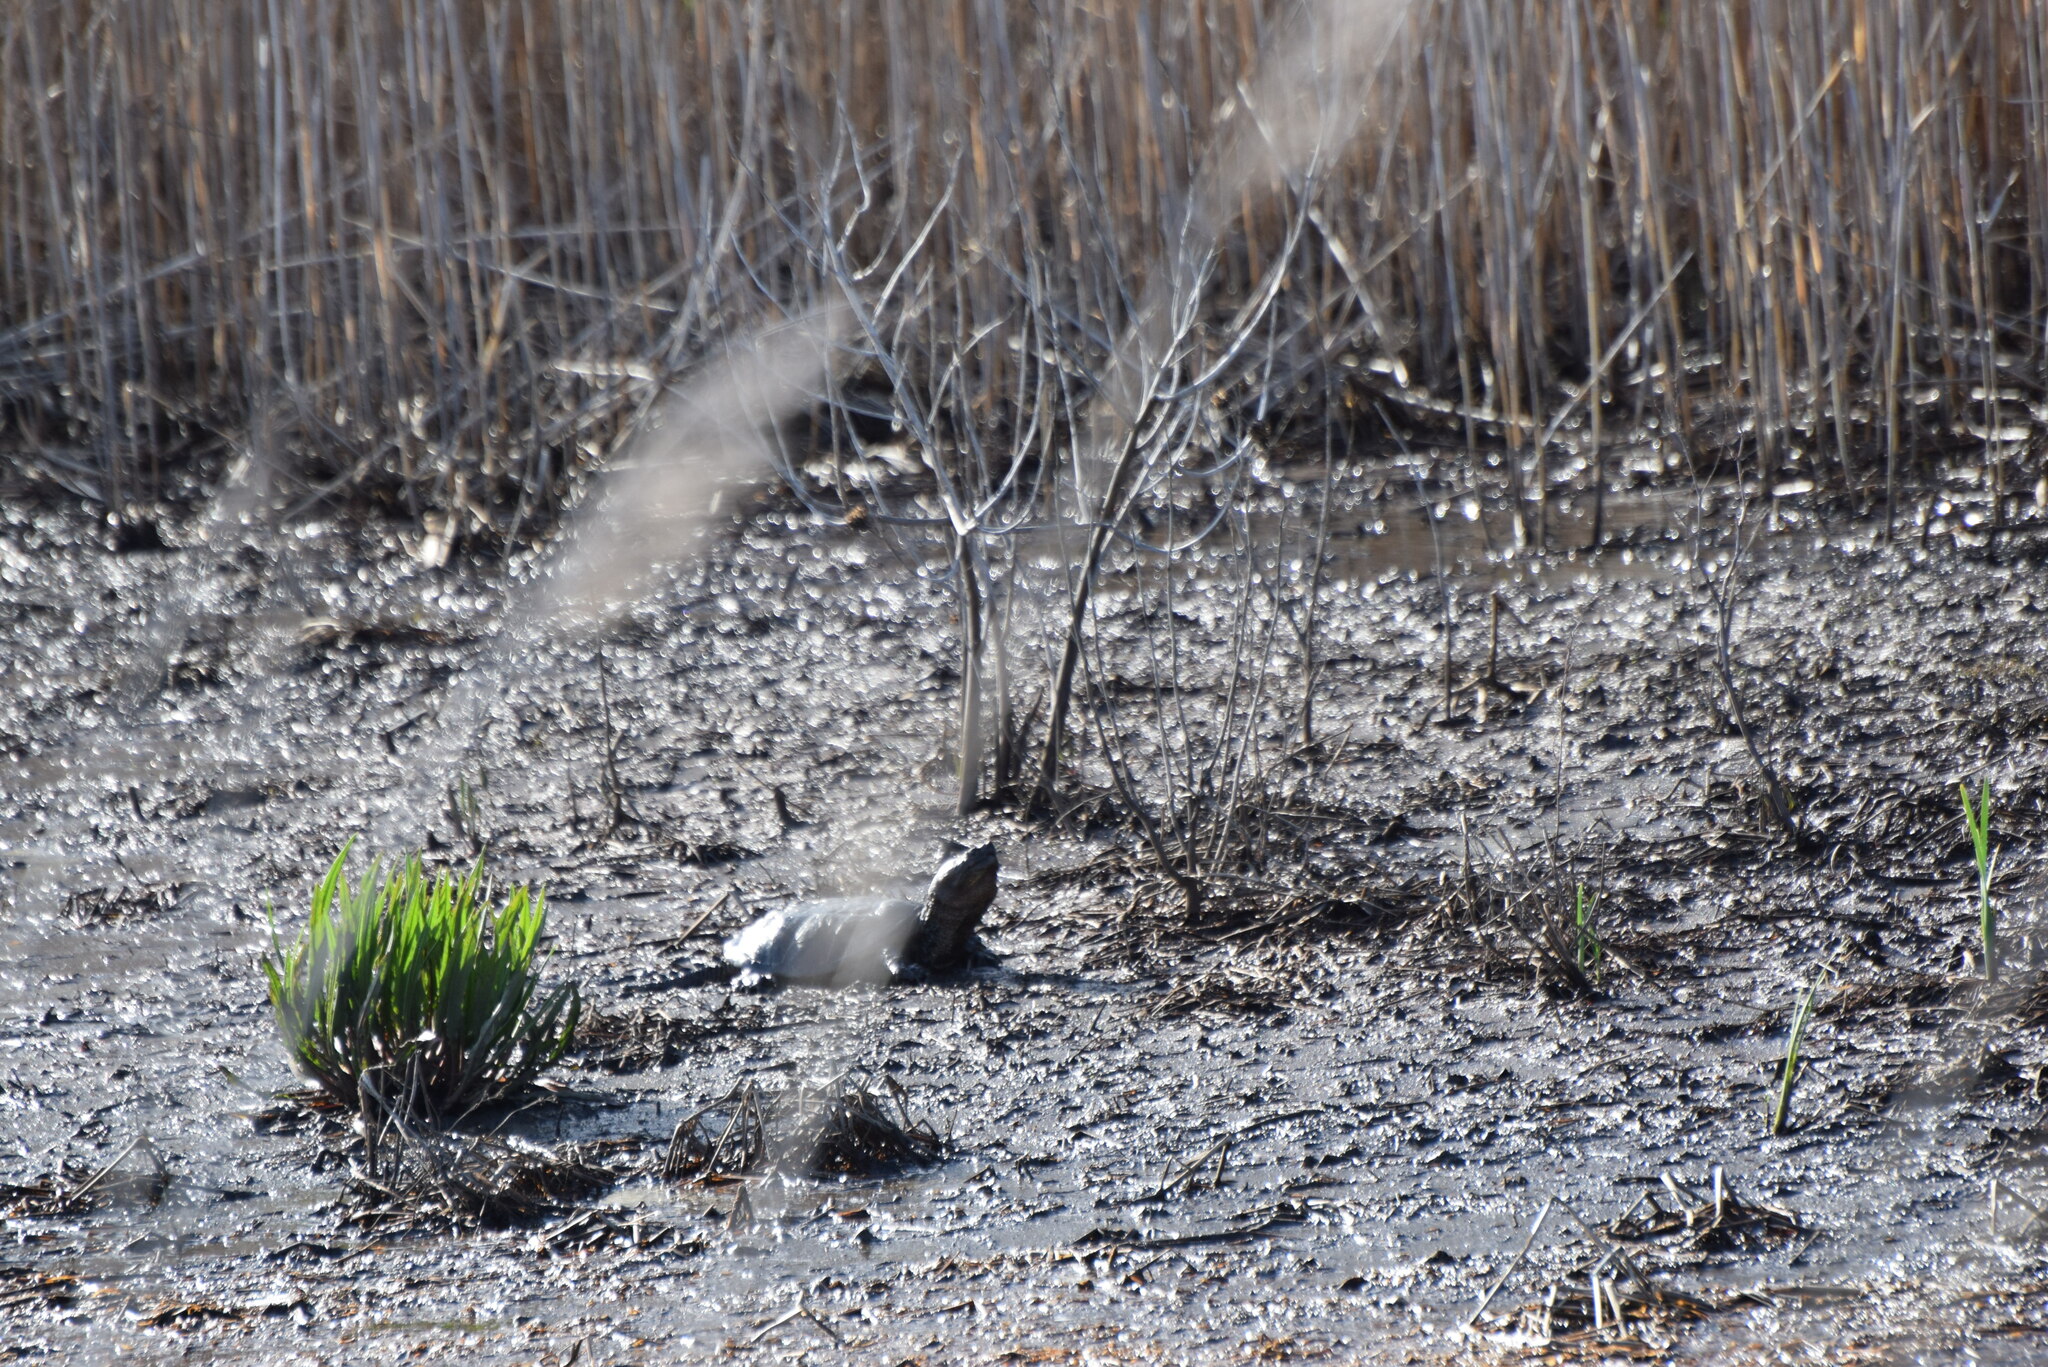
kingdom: Animalia
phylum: Chordata
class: Testudines
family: Chelydridae
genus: Chelydra
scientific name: Chelydra serpentina
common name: Common snapping turtle
